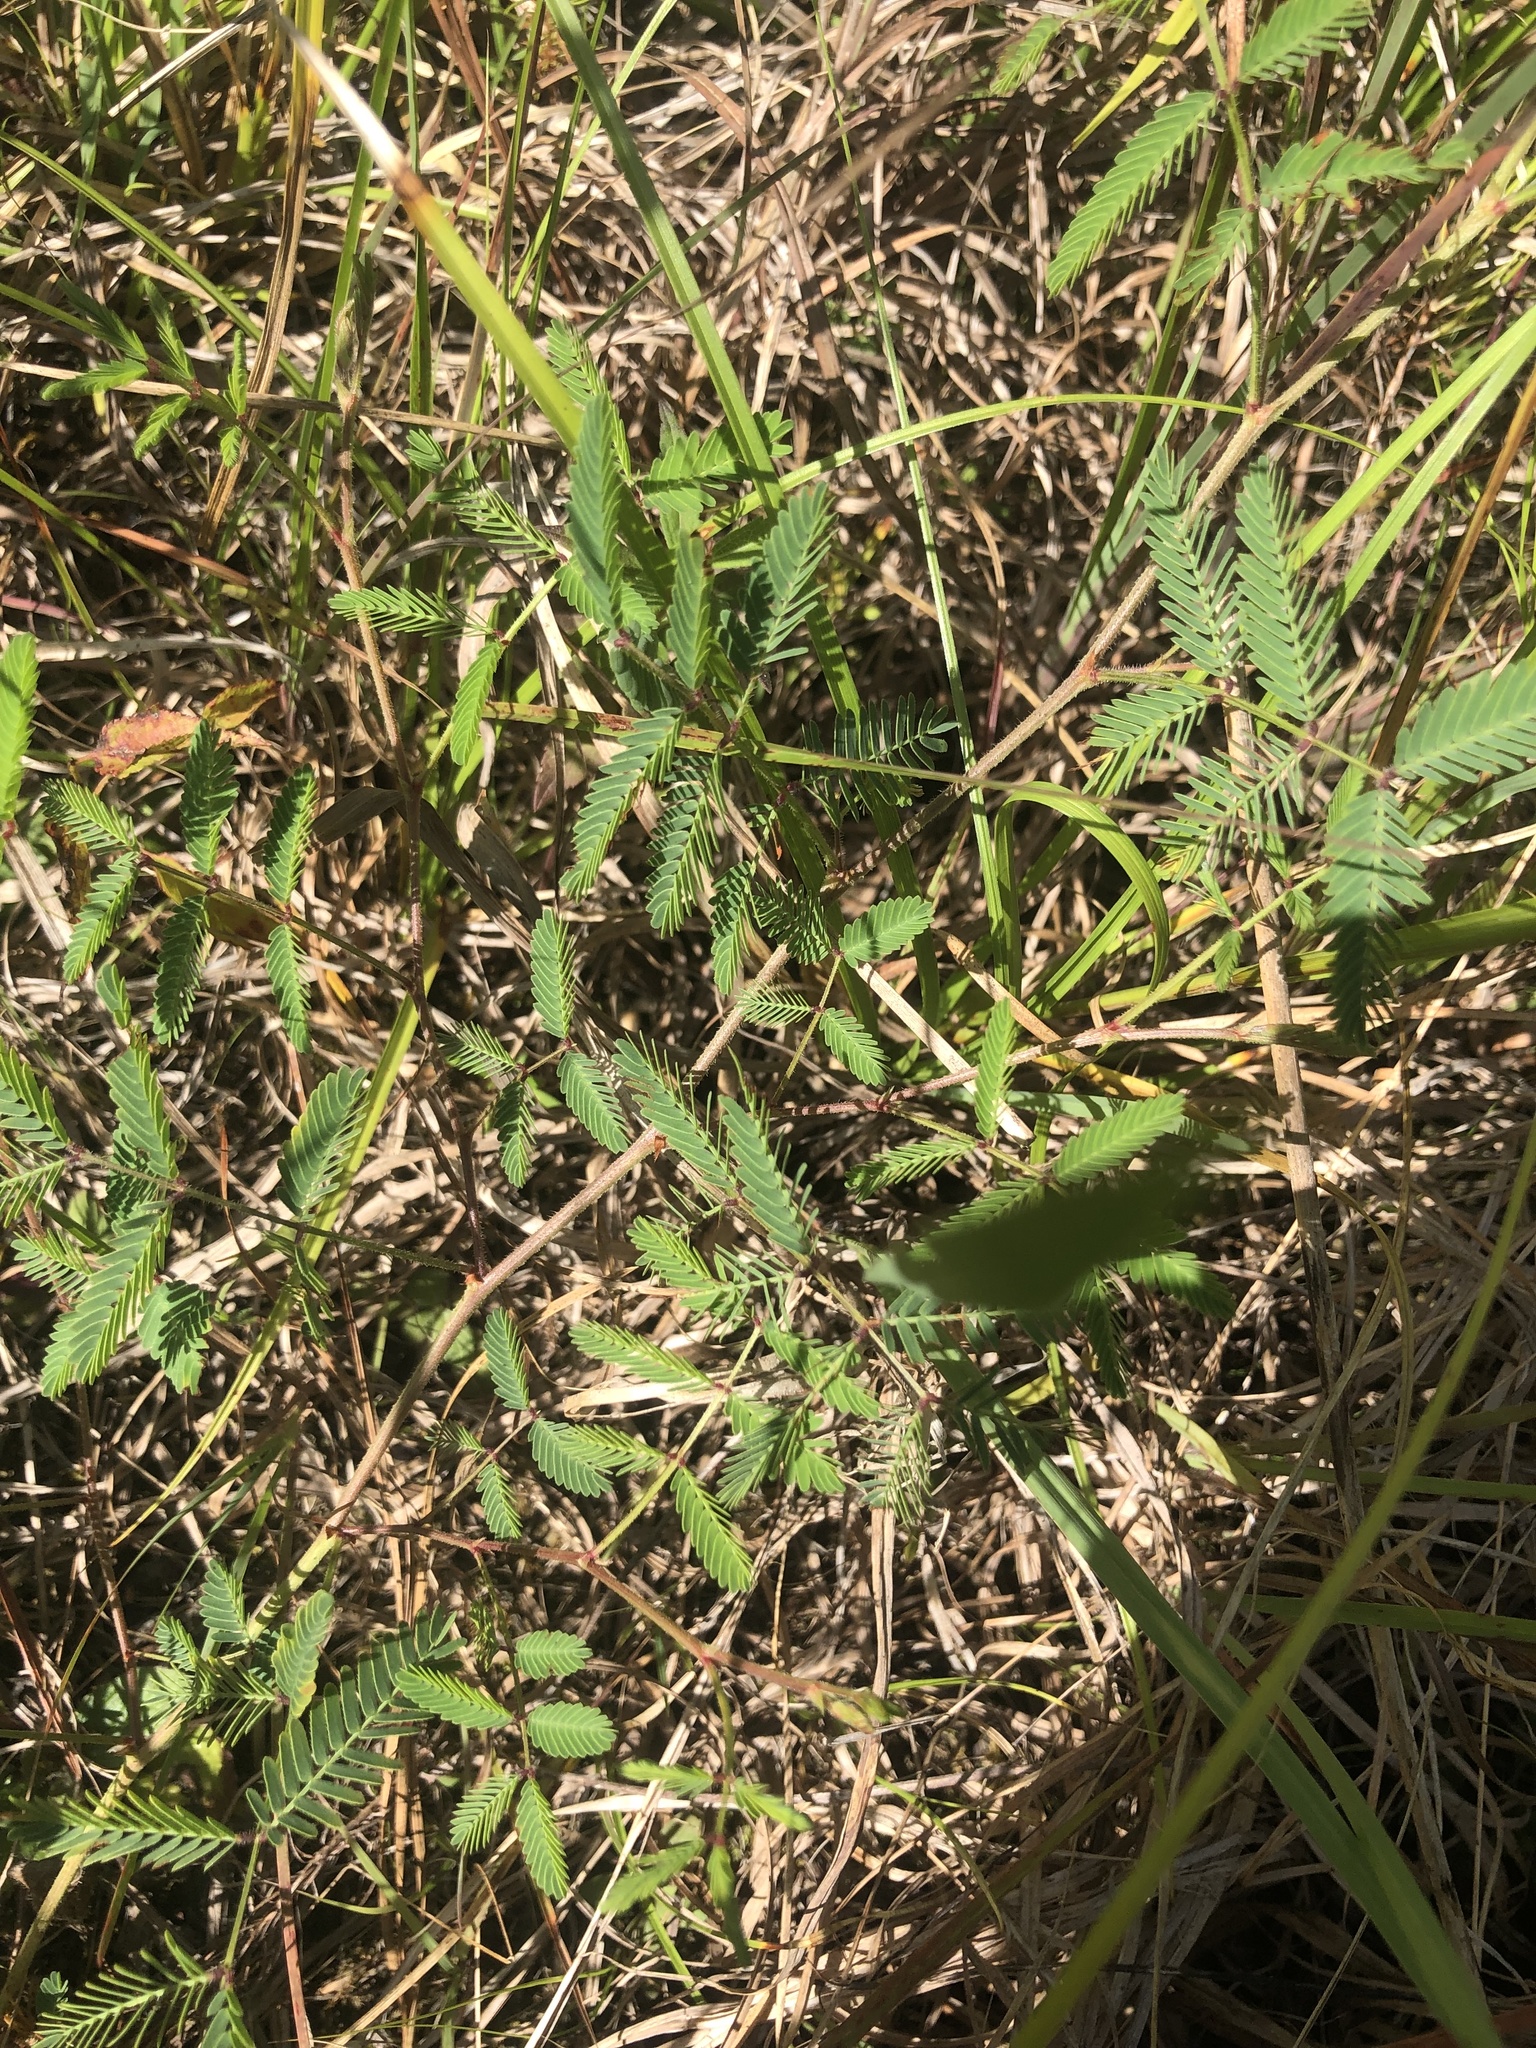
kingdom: Plantae
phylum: Tracheophyta
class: Magnoliopsida
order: Fabales
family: Fabaceae
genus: Neptunia
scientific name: Neptunia lutea
